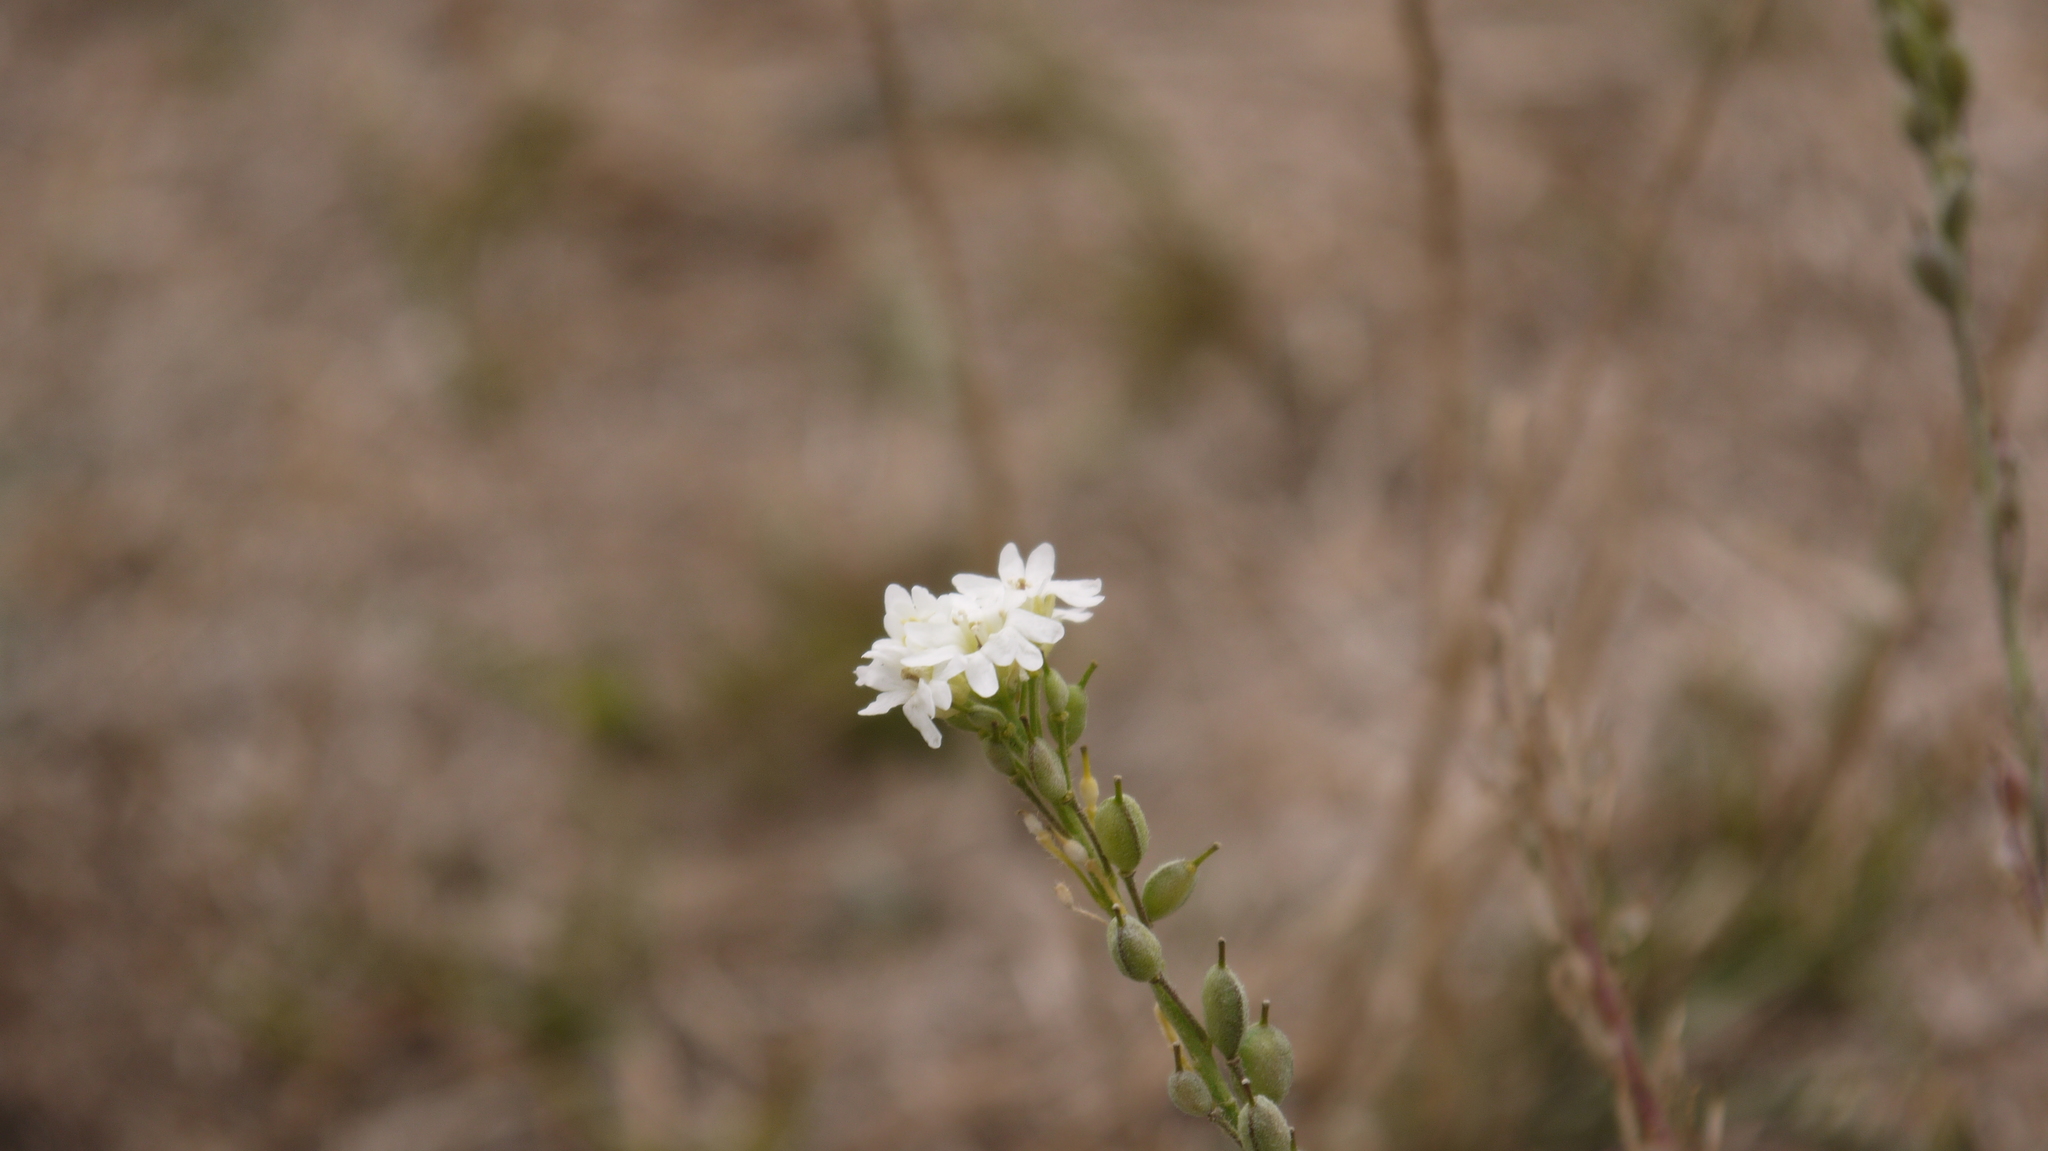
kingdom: Plantae
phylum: Tracheophyta
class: Magnoliopsida
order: Brassicales
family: Brassicaceae
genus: Berteroa
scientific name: Berteroa incana
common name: Hoary alison
